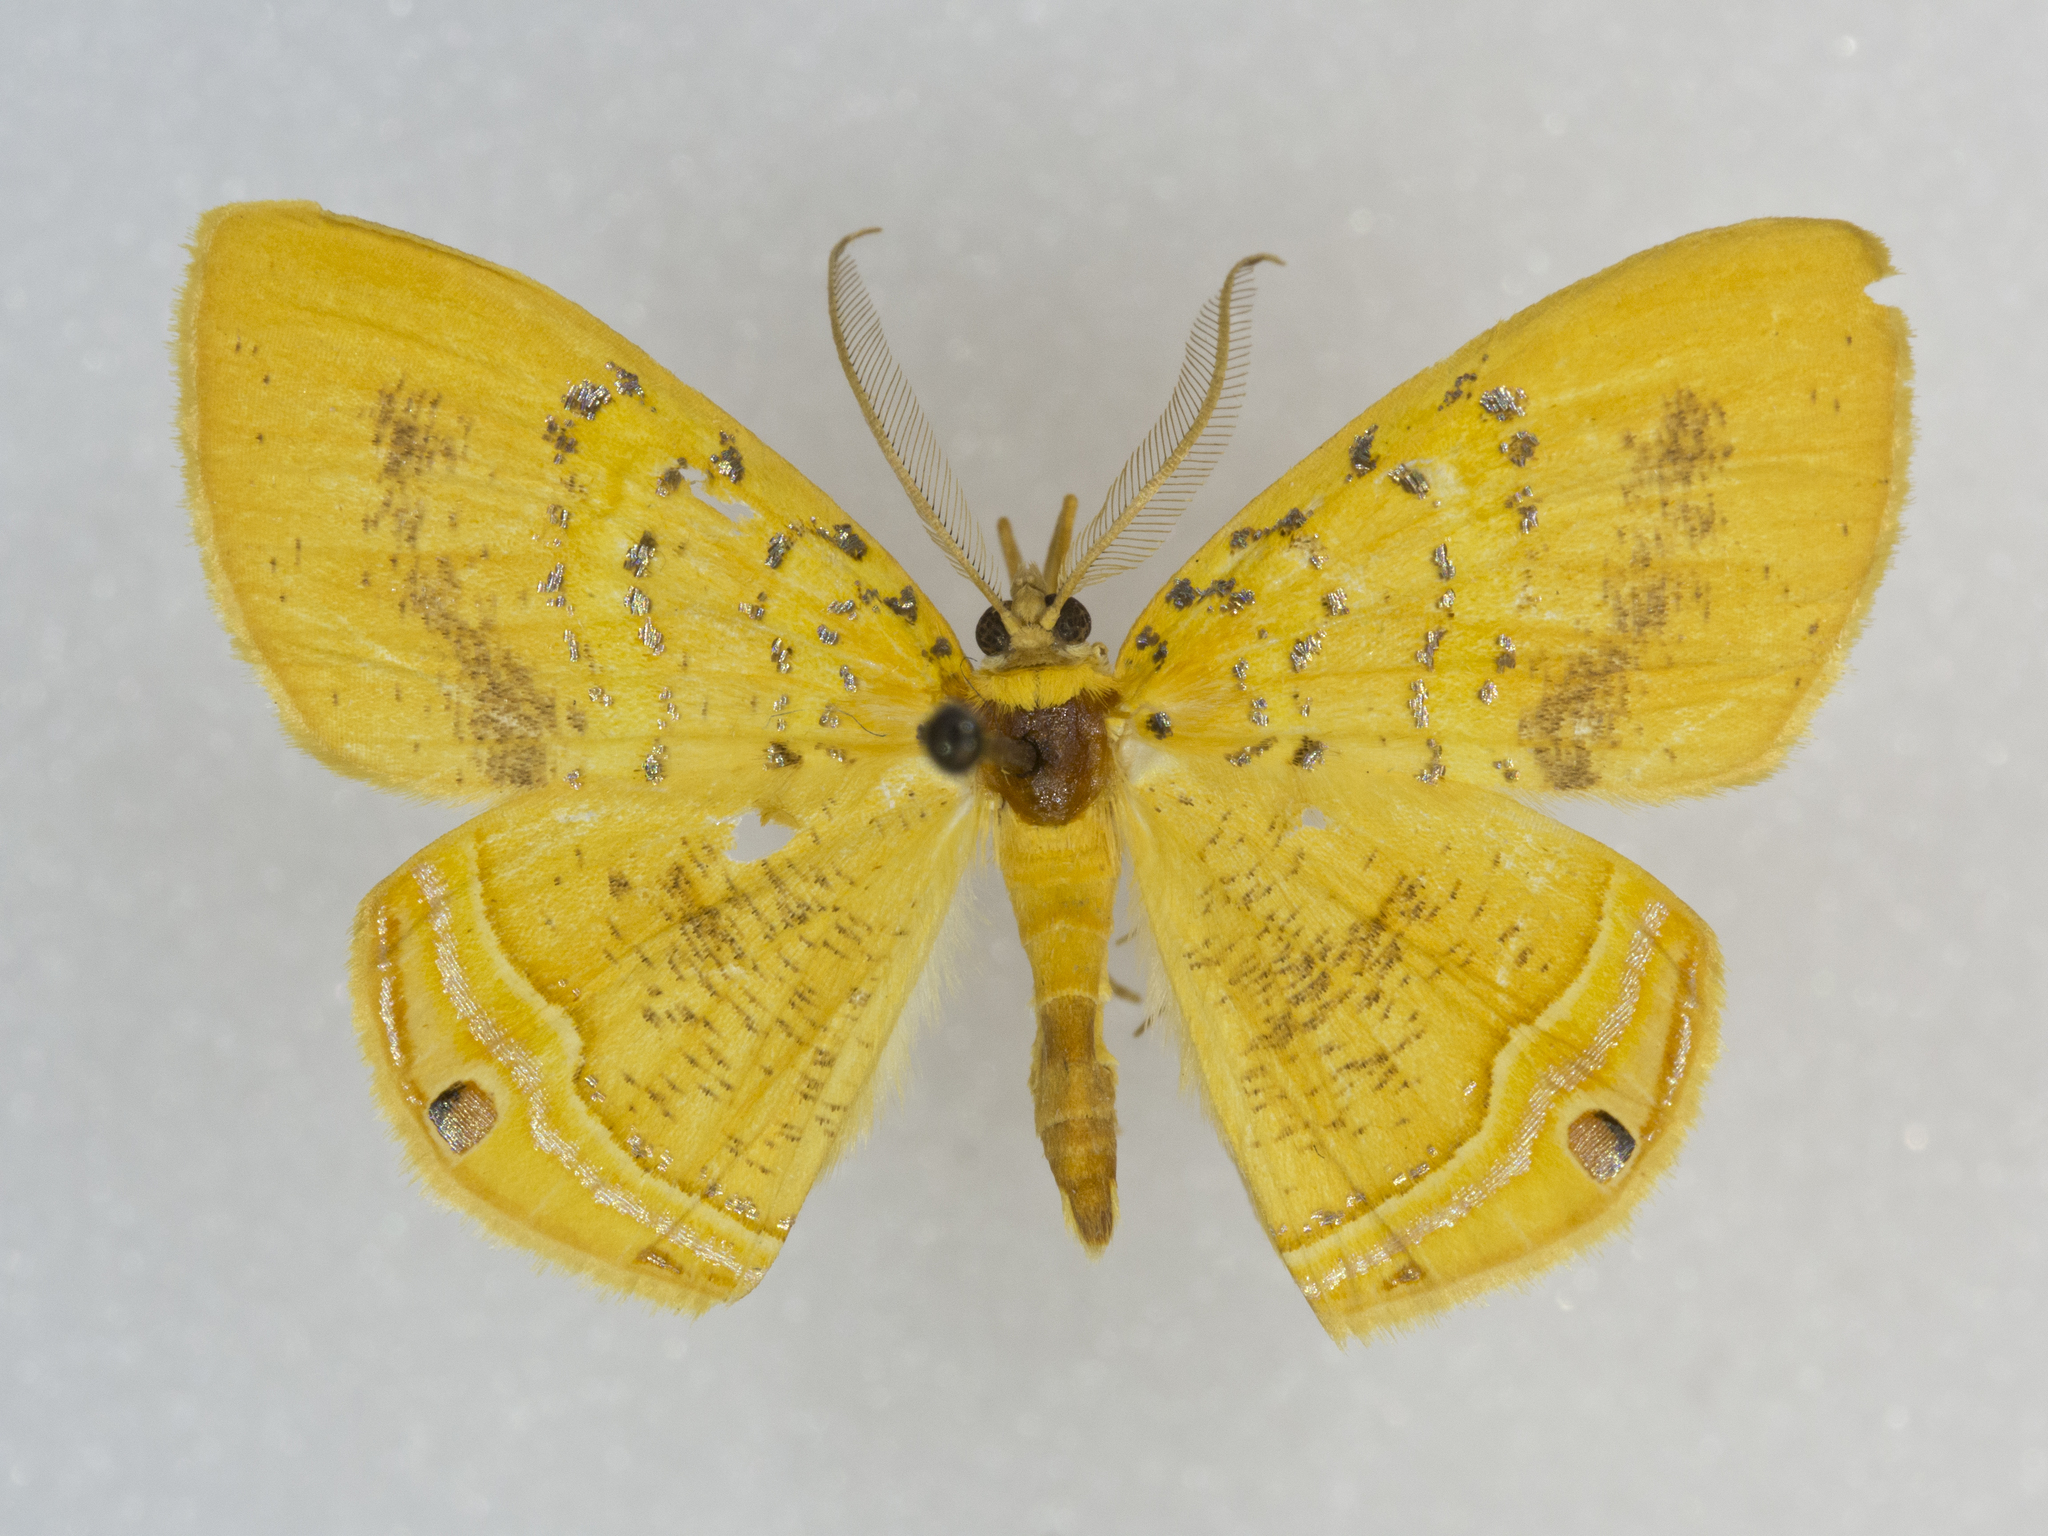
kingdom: Animalia
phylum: Arthropoda
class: Insecta
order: Lepidoptera
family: Geometridae
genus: Phrygionis
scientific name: Phrygionis auriferaria
